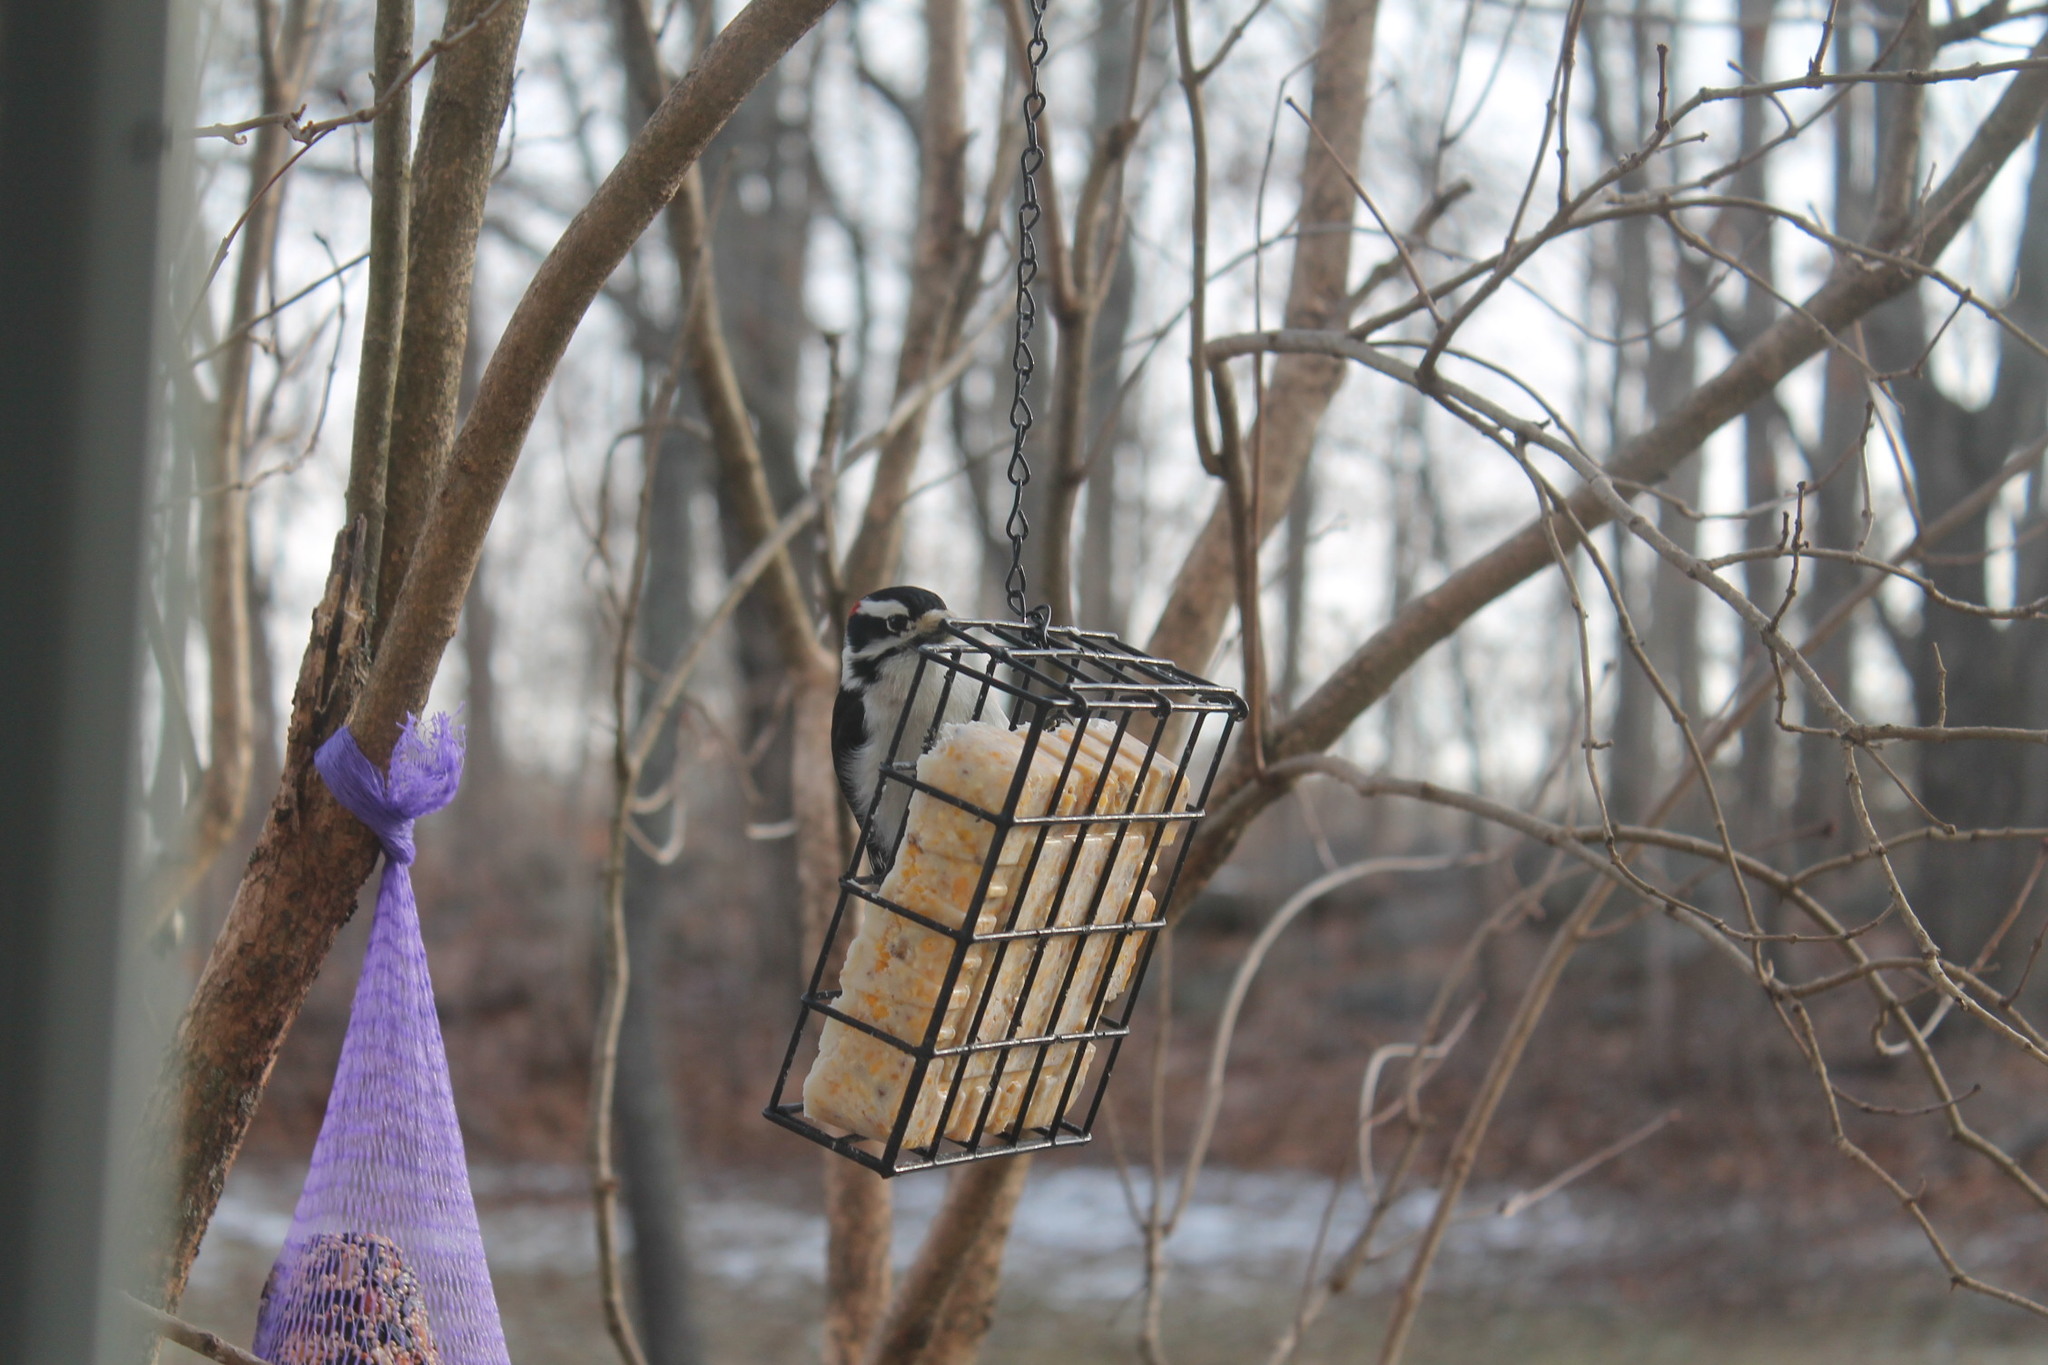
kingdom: Animalia
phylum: Chordata
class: Aves
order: Piciformes
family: Picidae
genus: Dryobates
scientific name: Dryobates pubescens
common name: Downy woodpecker
